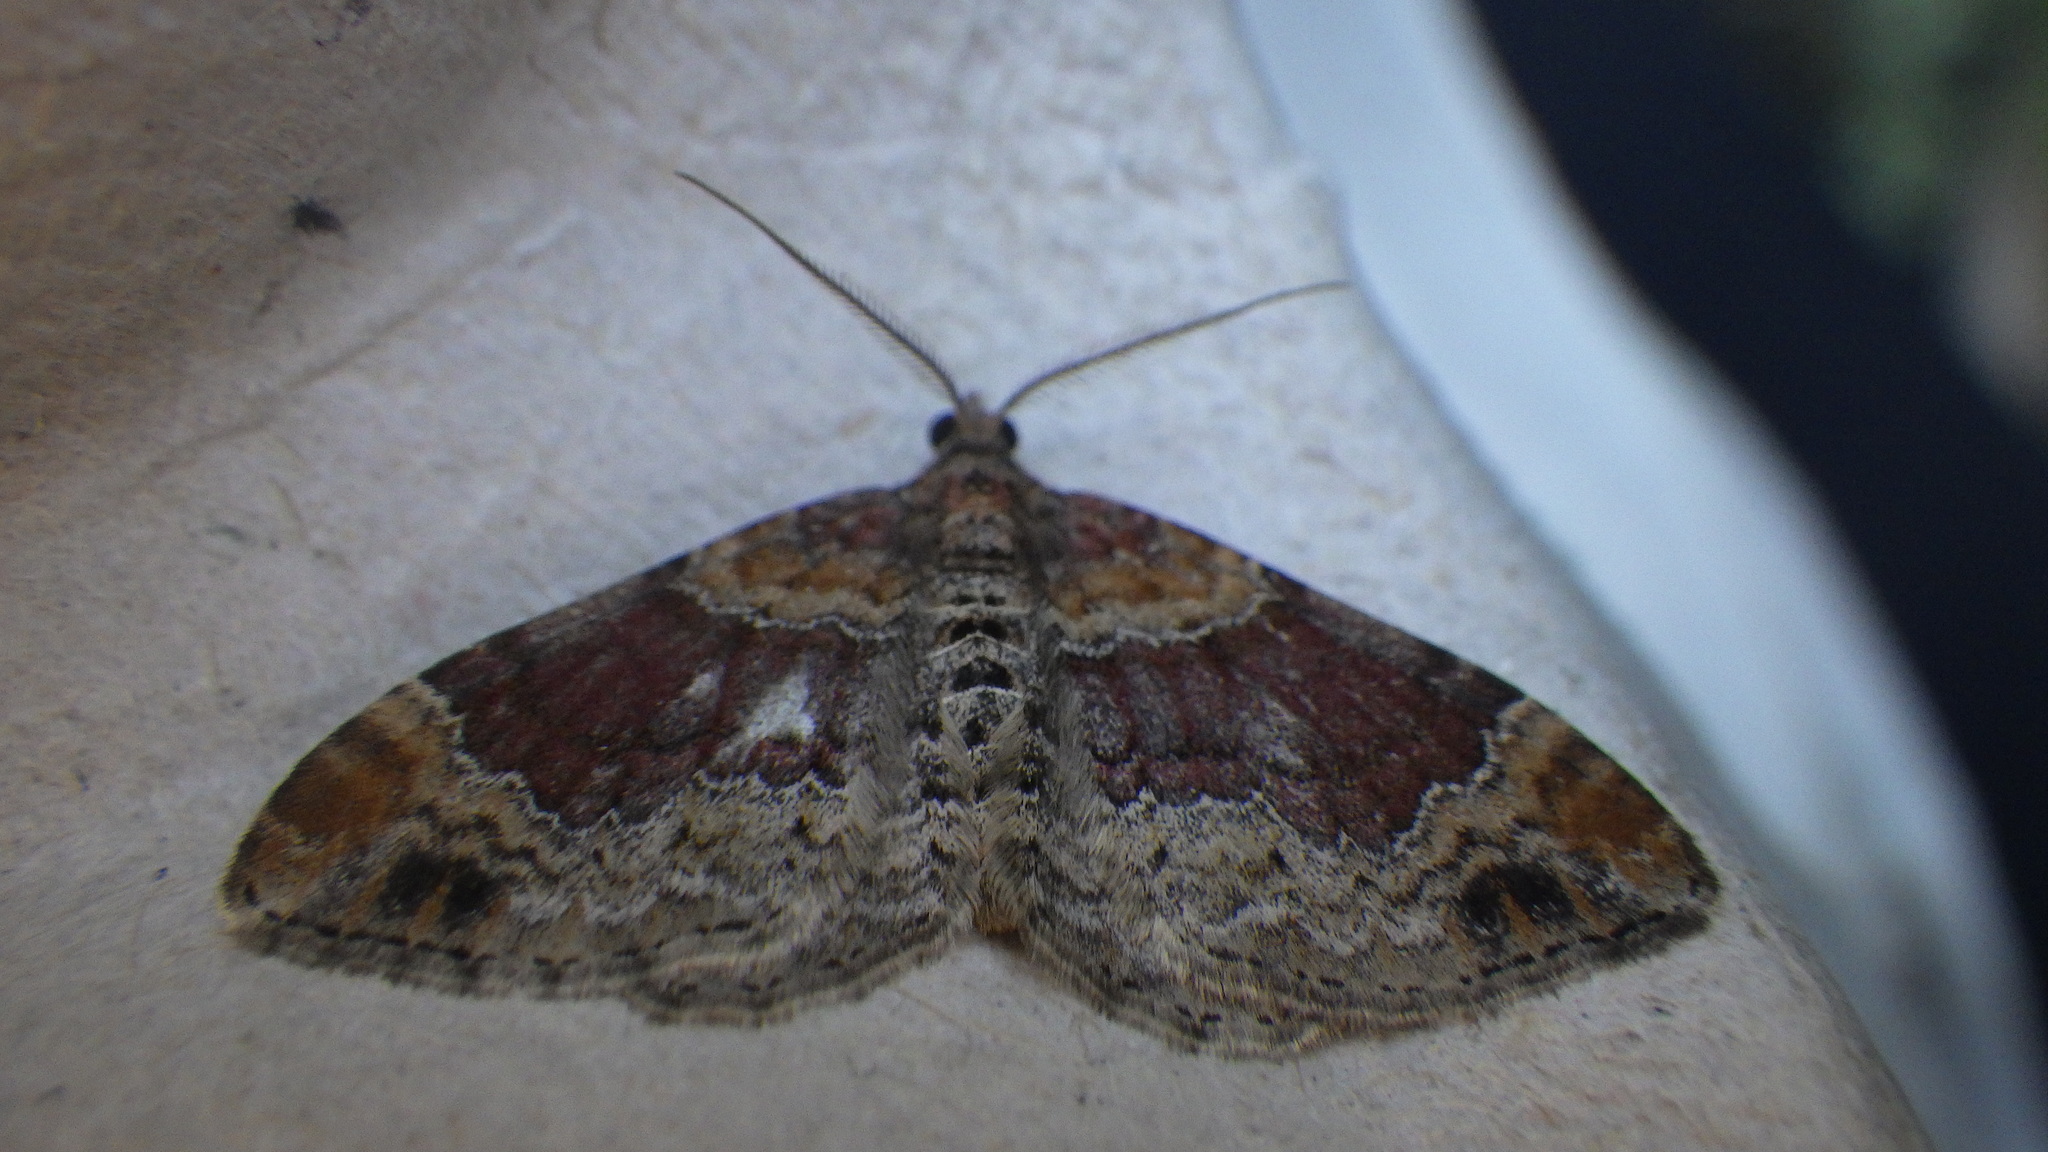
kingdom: Animalia
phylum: Arthropoda
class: Insecta
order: Lepidoptera
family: Geometridae
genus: Xanthorhoe
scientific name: Xanthorhoe ferrugata
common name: Dark-barred twin-spot carpet
